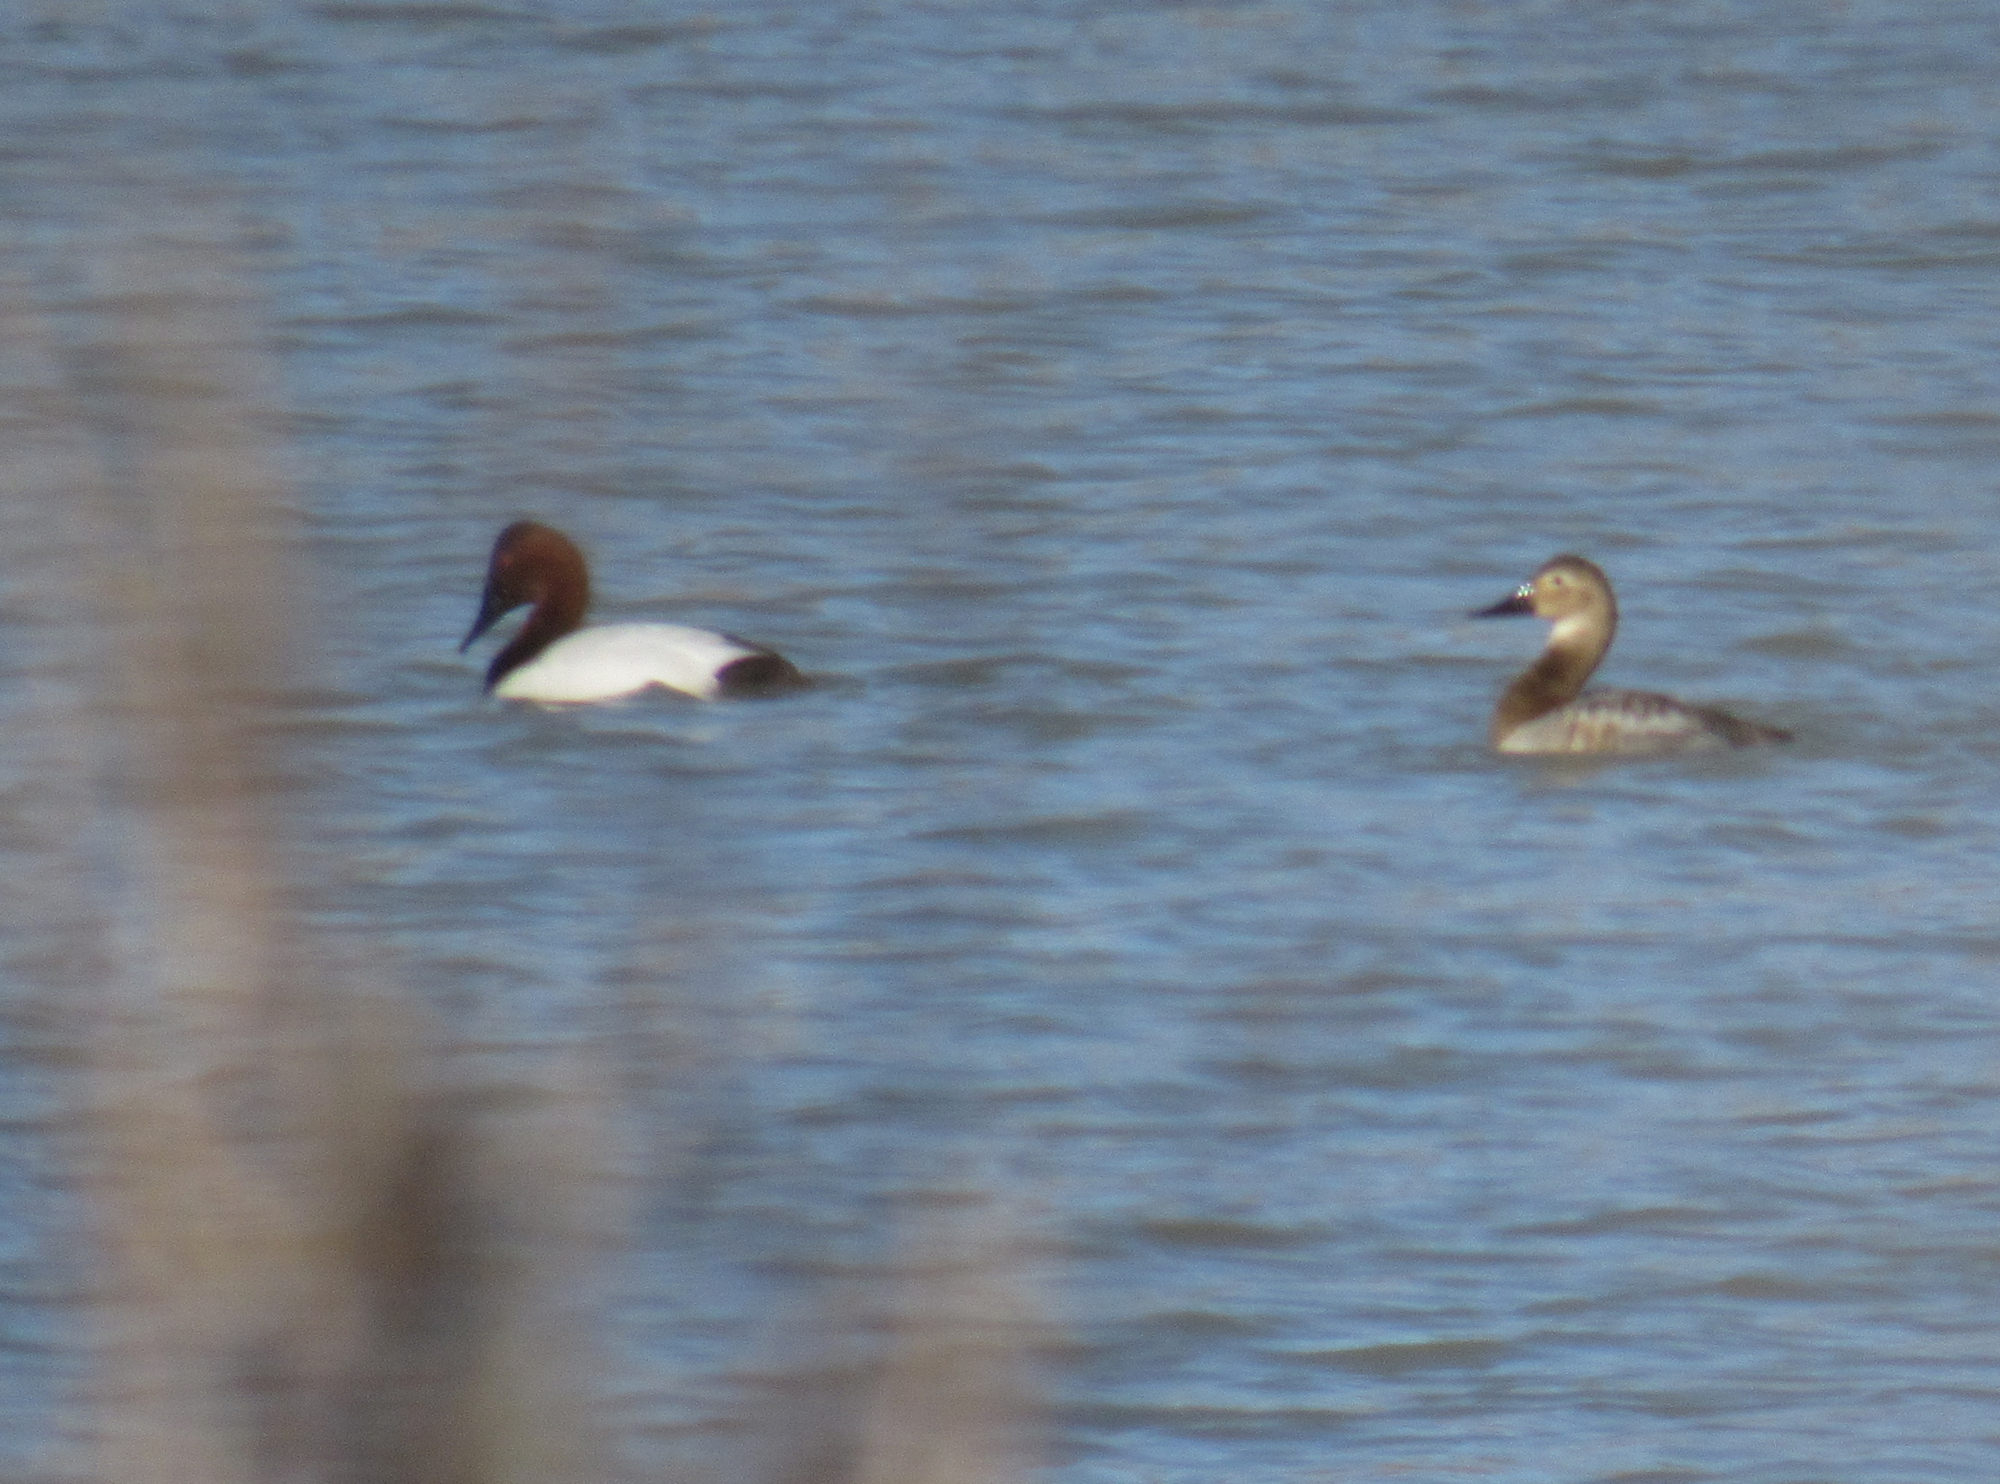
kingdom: Animalia
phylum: Chordata
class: Aves
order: Anseriformes
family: Anatidae
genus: Aythya
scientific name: Aythya valisineria
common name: Canvasback
